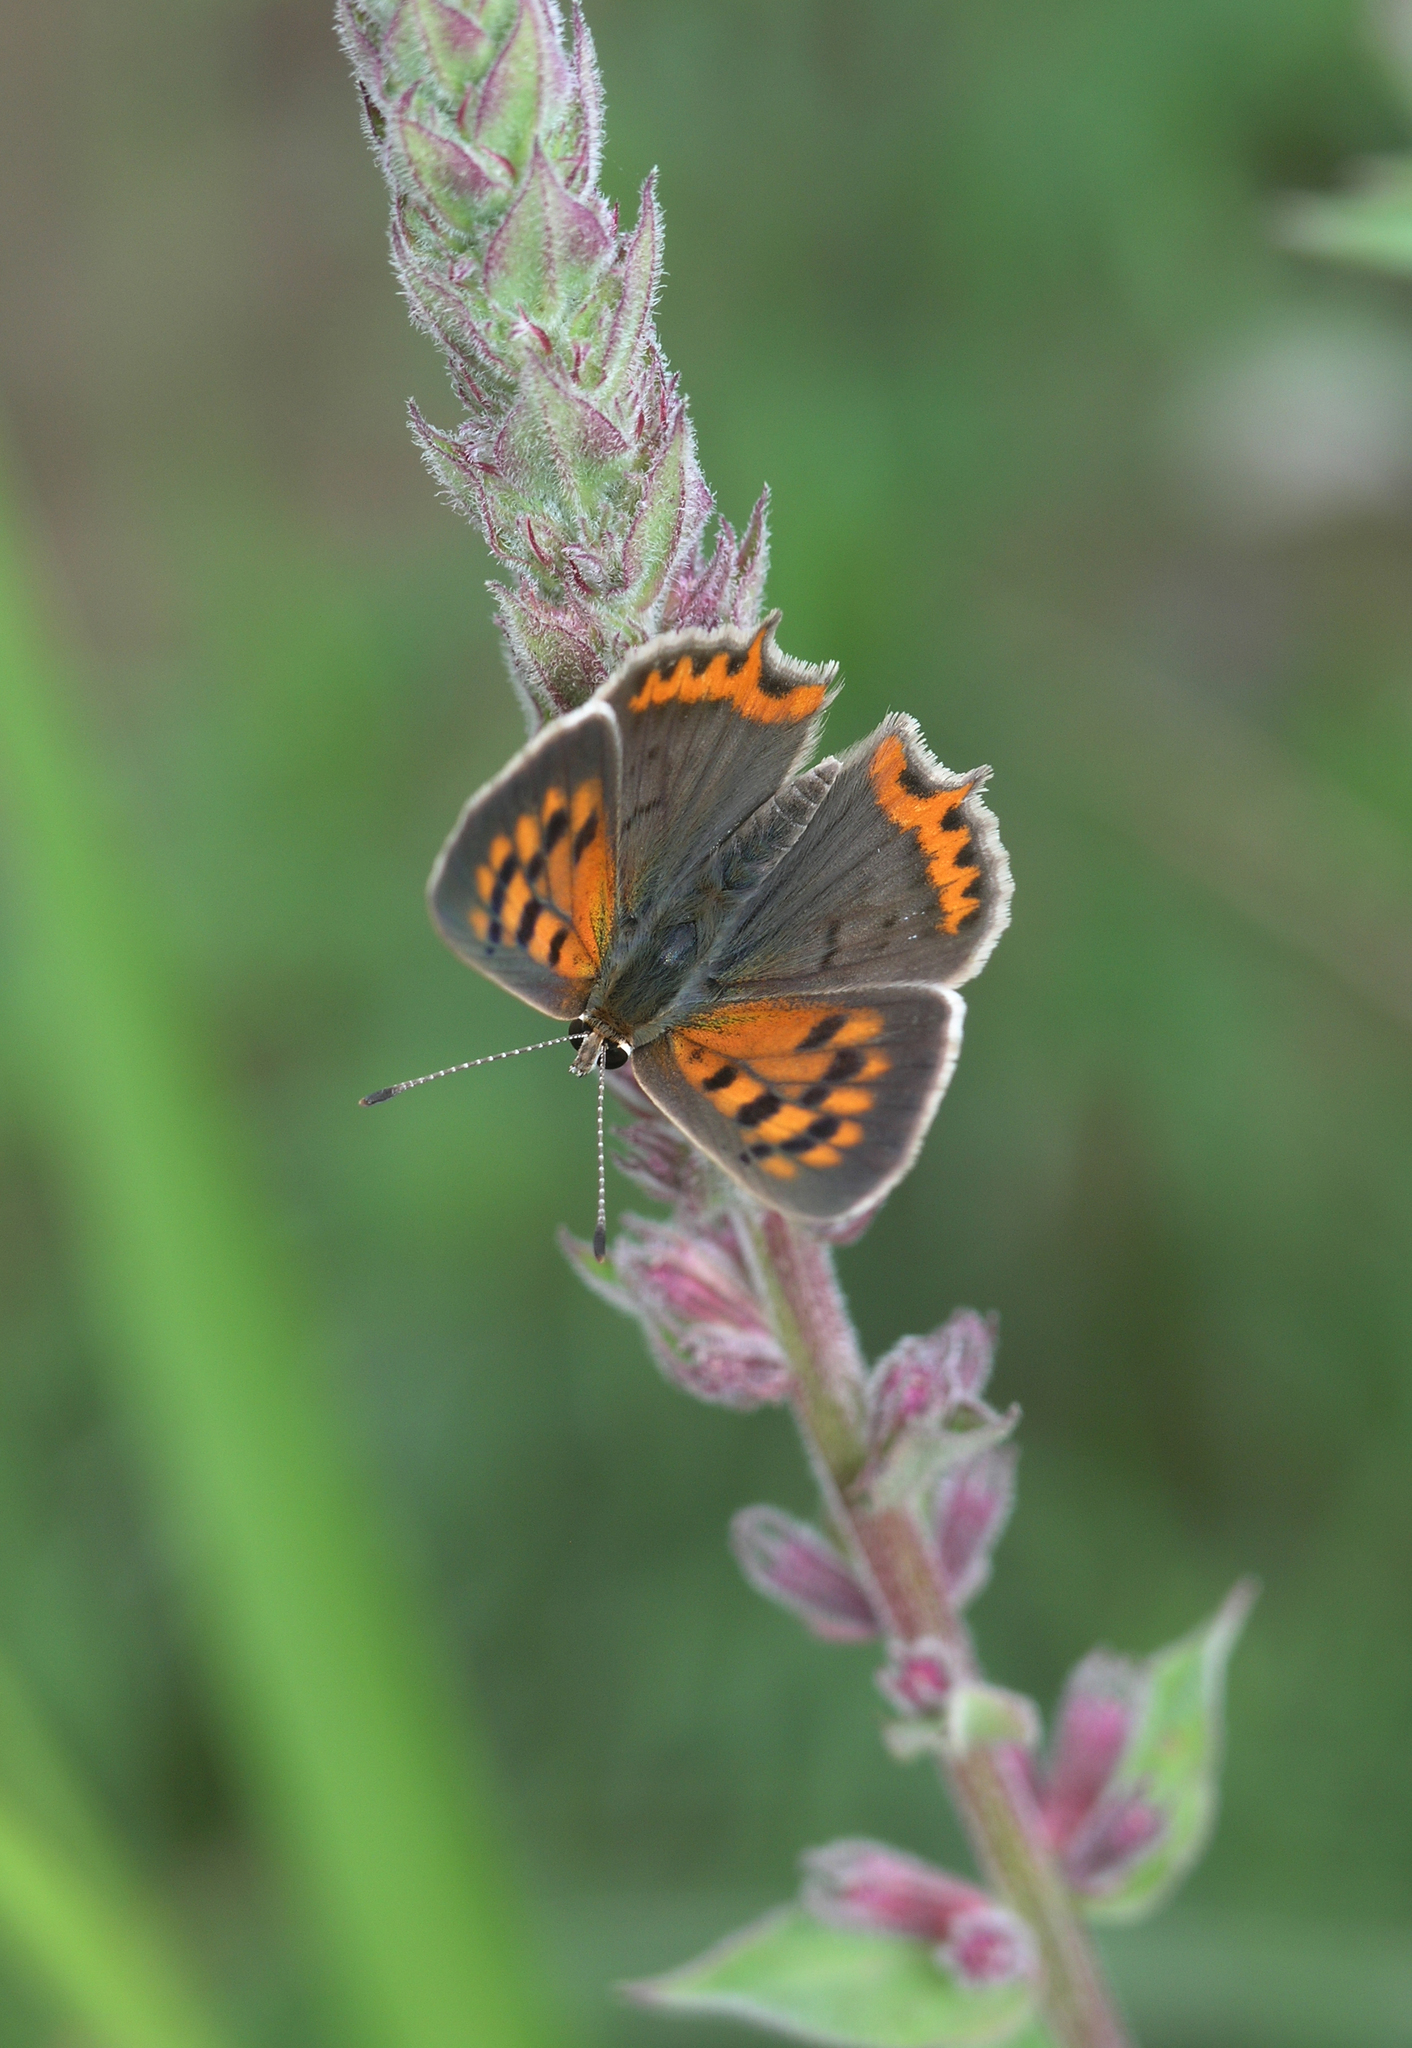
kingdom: Animalia
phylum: Arthropoda
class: Insecta
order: Lepidoptera
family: Lycaenidae
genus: Lycaena
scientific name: Lycaena phlaeas
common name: Small copper
